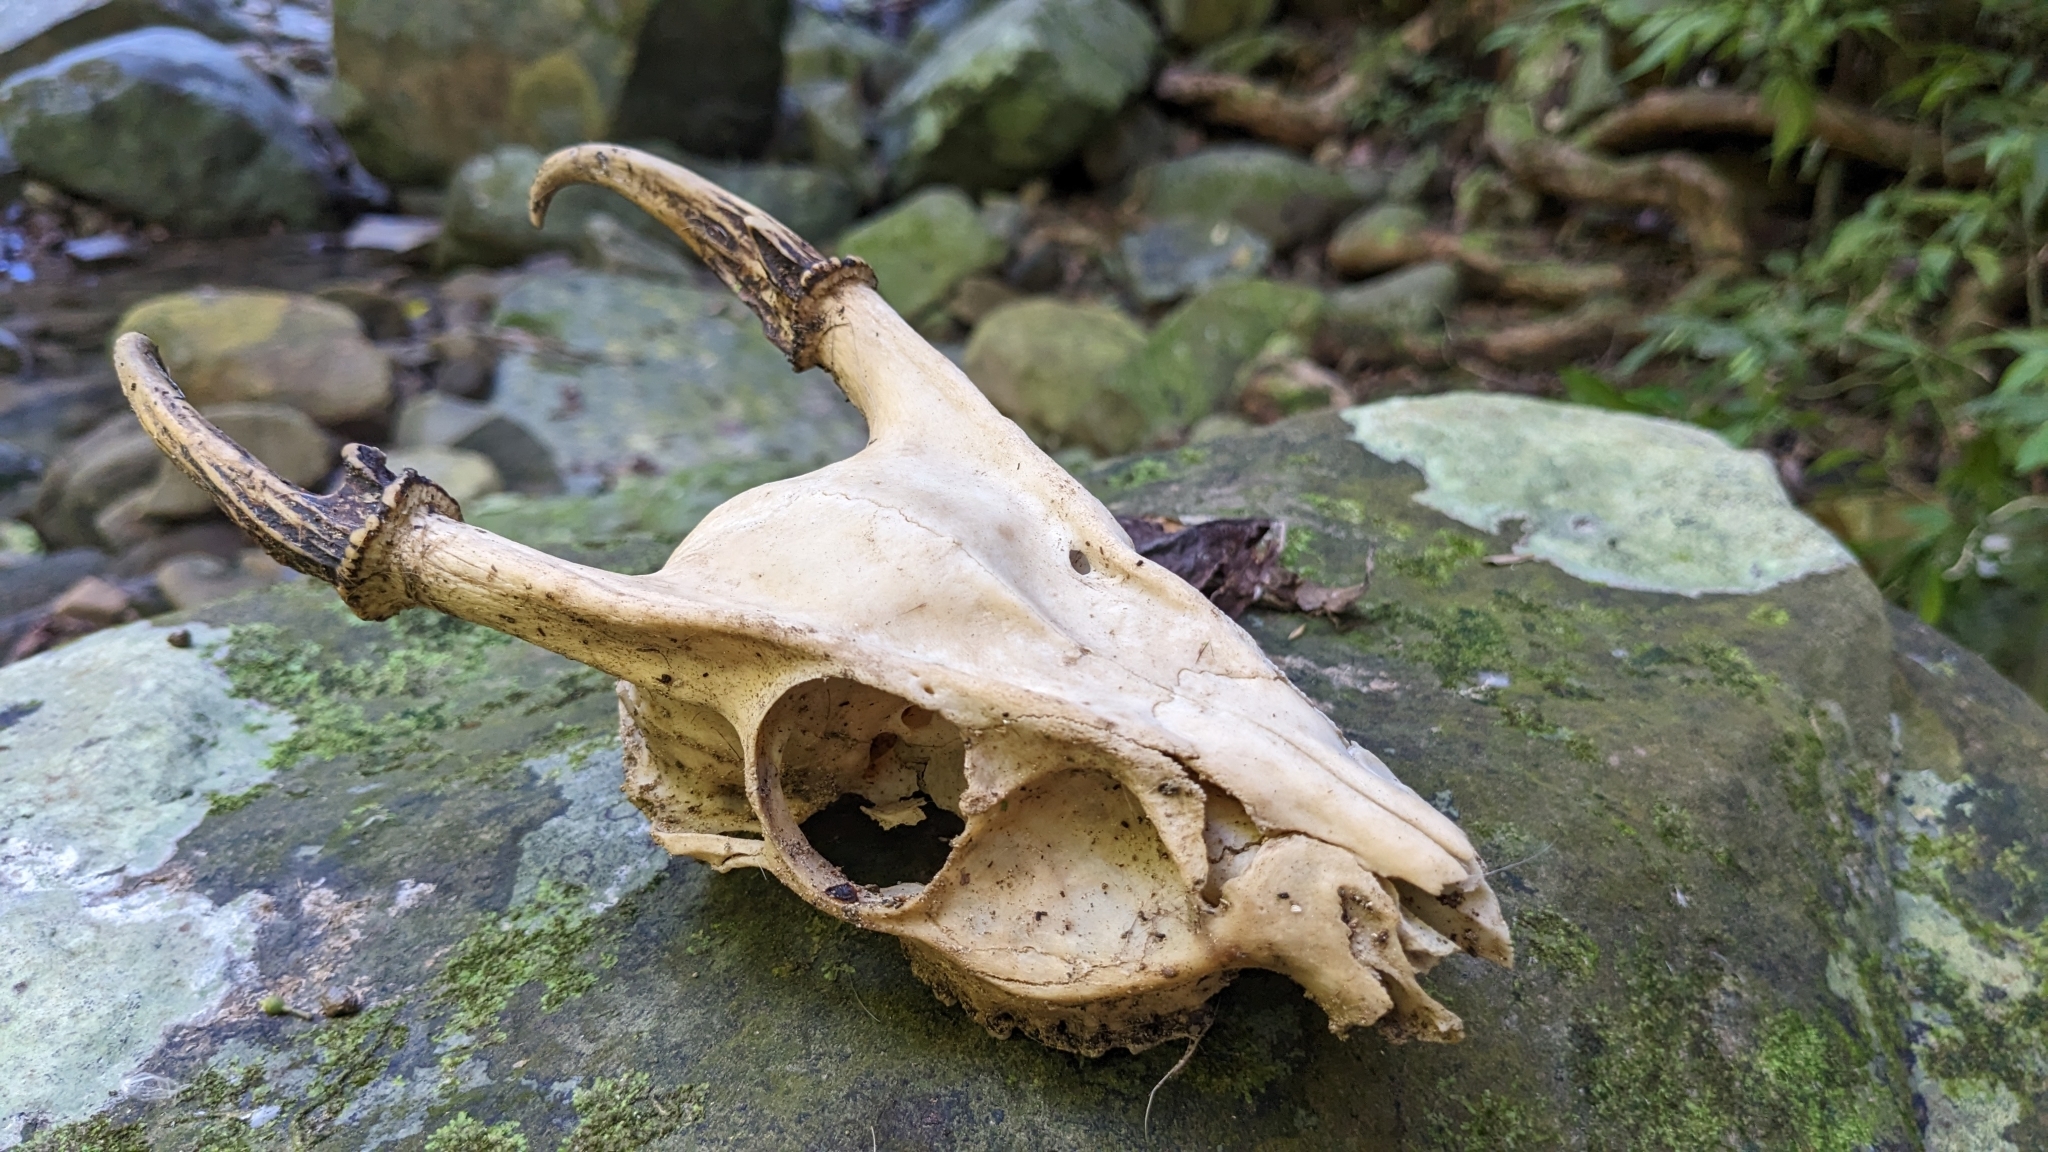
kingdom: Animalia
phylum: Chordata
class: Mammalia
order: Artiodactyla
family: Cervidae
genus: Muntiacus
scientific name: Muntiacus reevesi
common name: Reeves' muntjac
